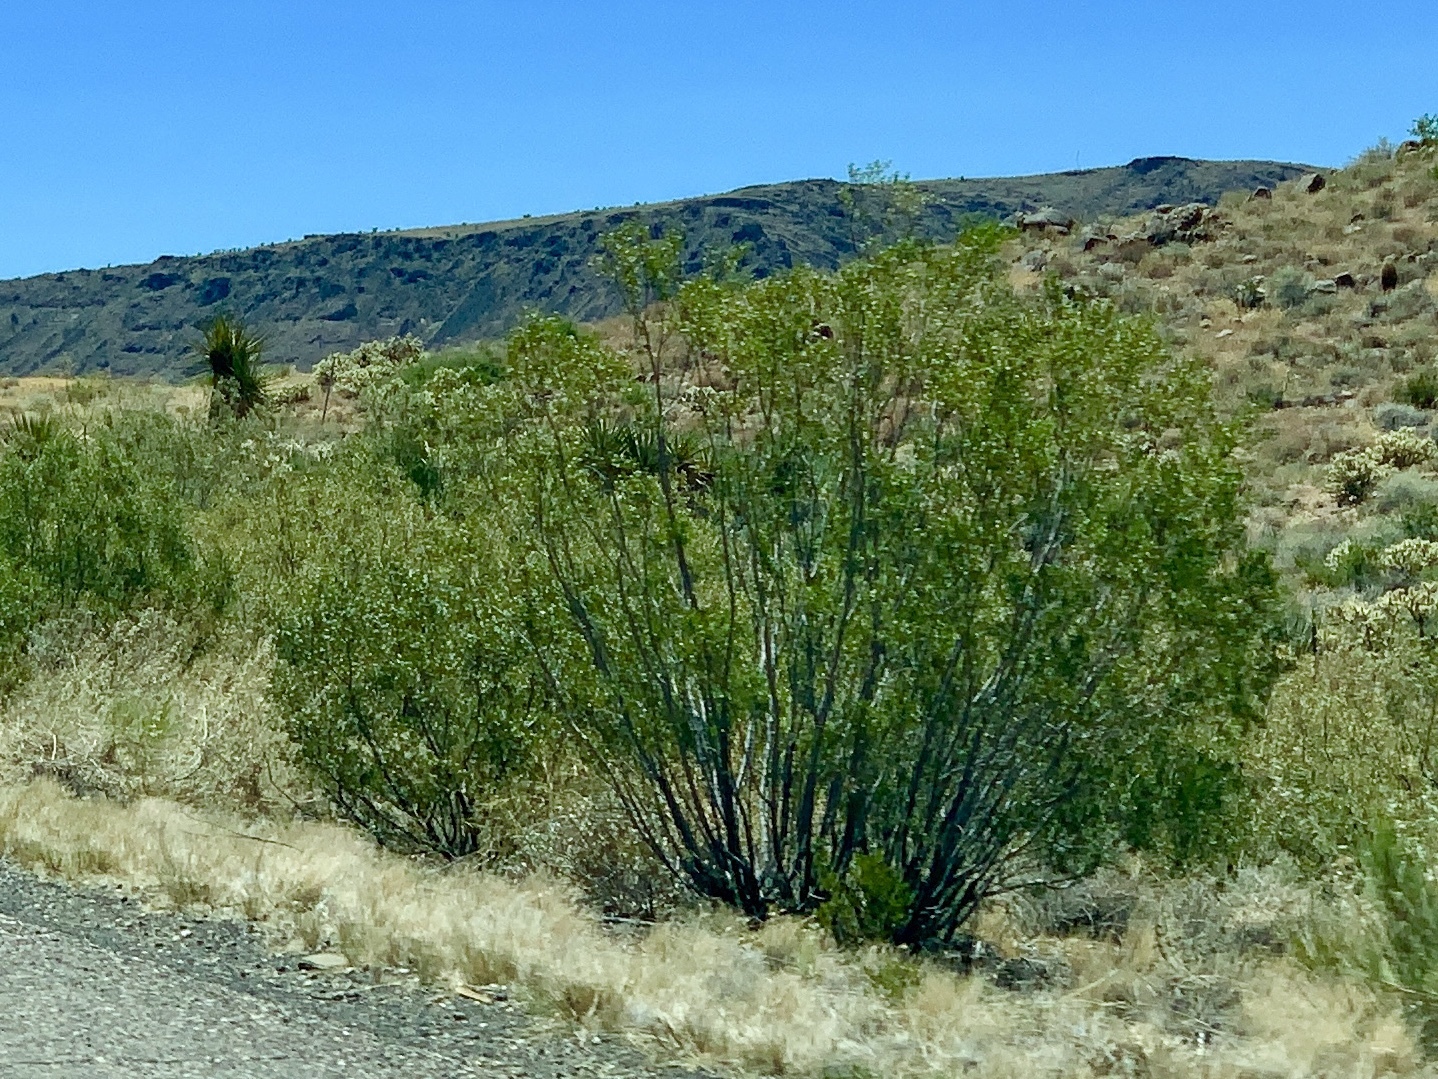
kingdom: Plantae
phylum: Tracheophyta
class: Magnoliopsida
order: Zygophyllales
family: Zygophyllaceae
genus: Larrea
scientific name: Larrea tridentata
